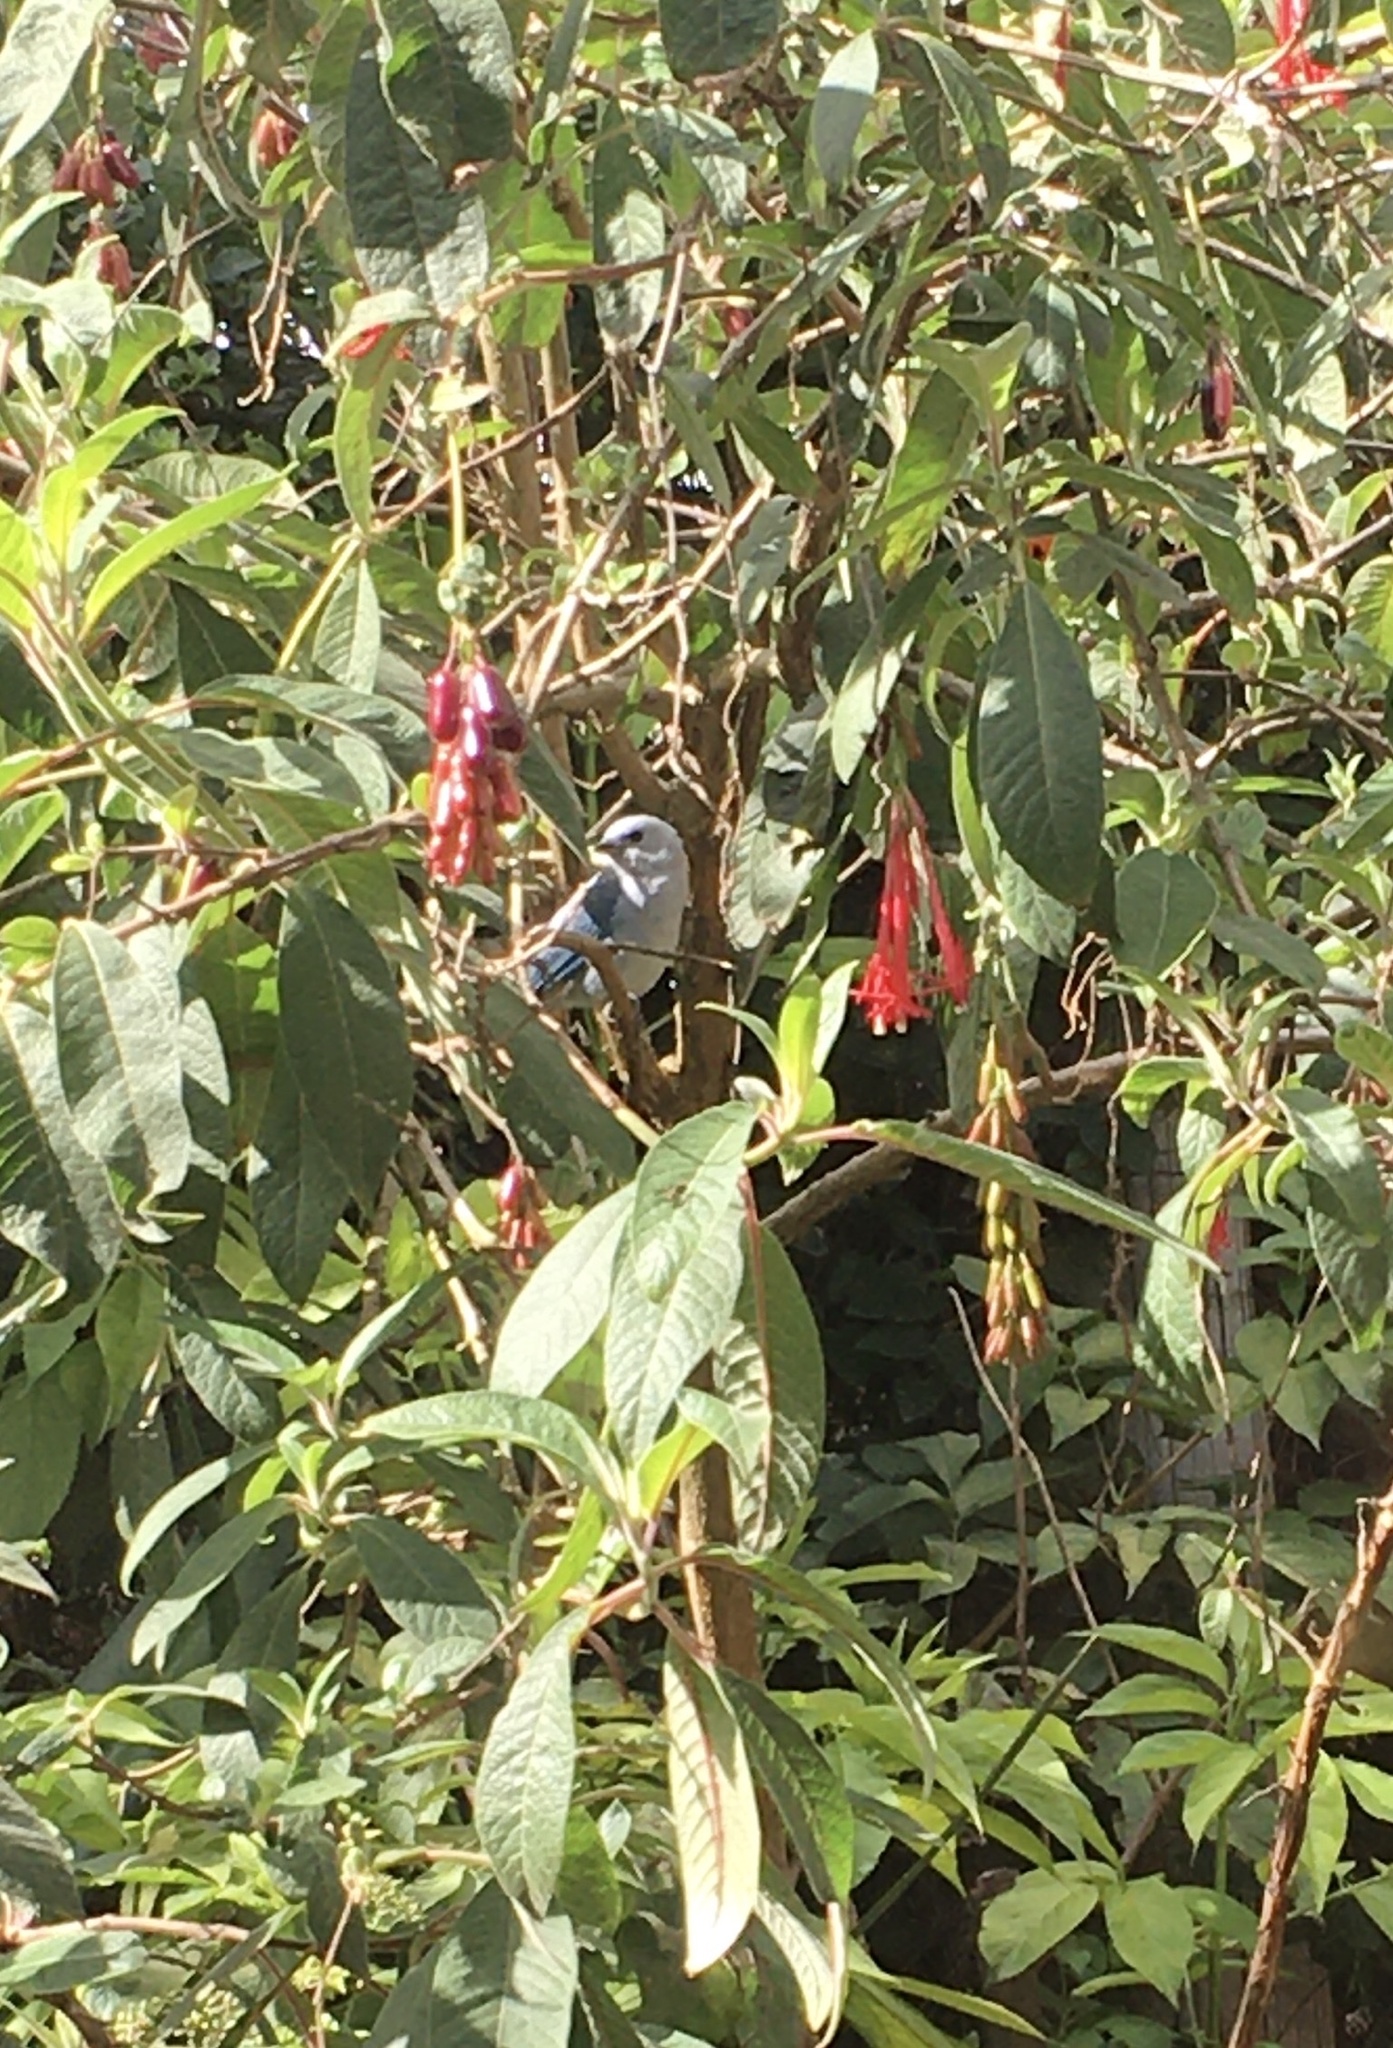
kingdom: Animalia
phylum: Chordata
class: Aves
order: Passeriformes
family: Thraupidae
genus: Thraupis
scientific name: Thraupis episcopus
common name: Blue-grey tanager
